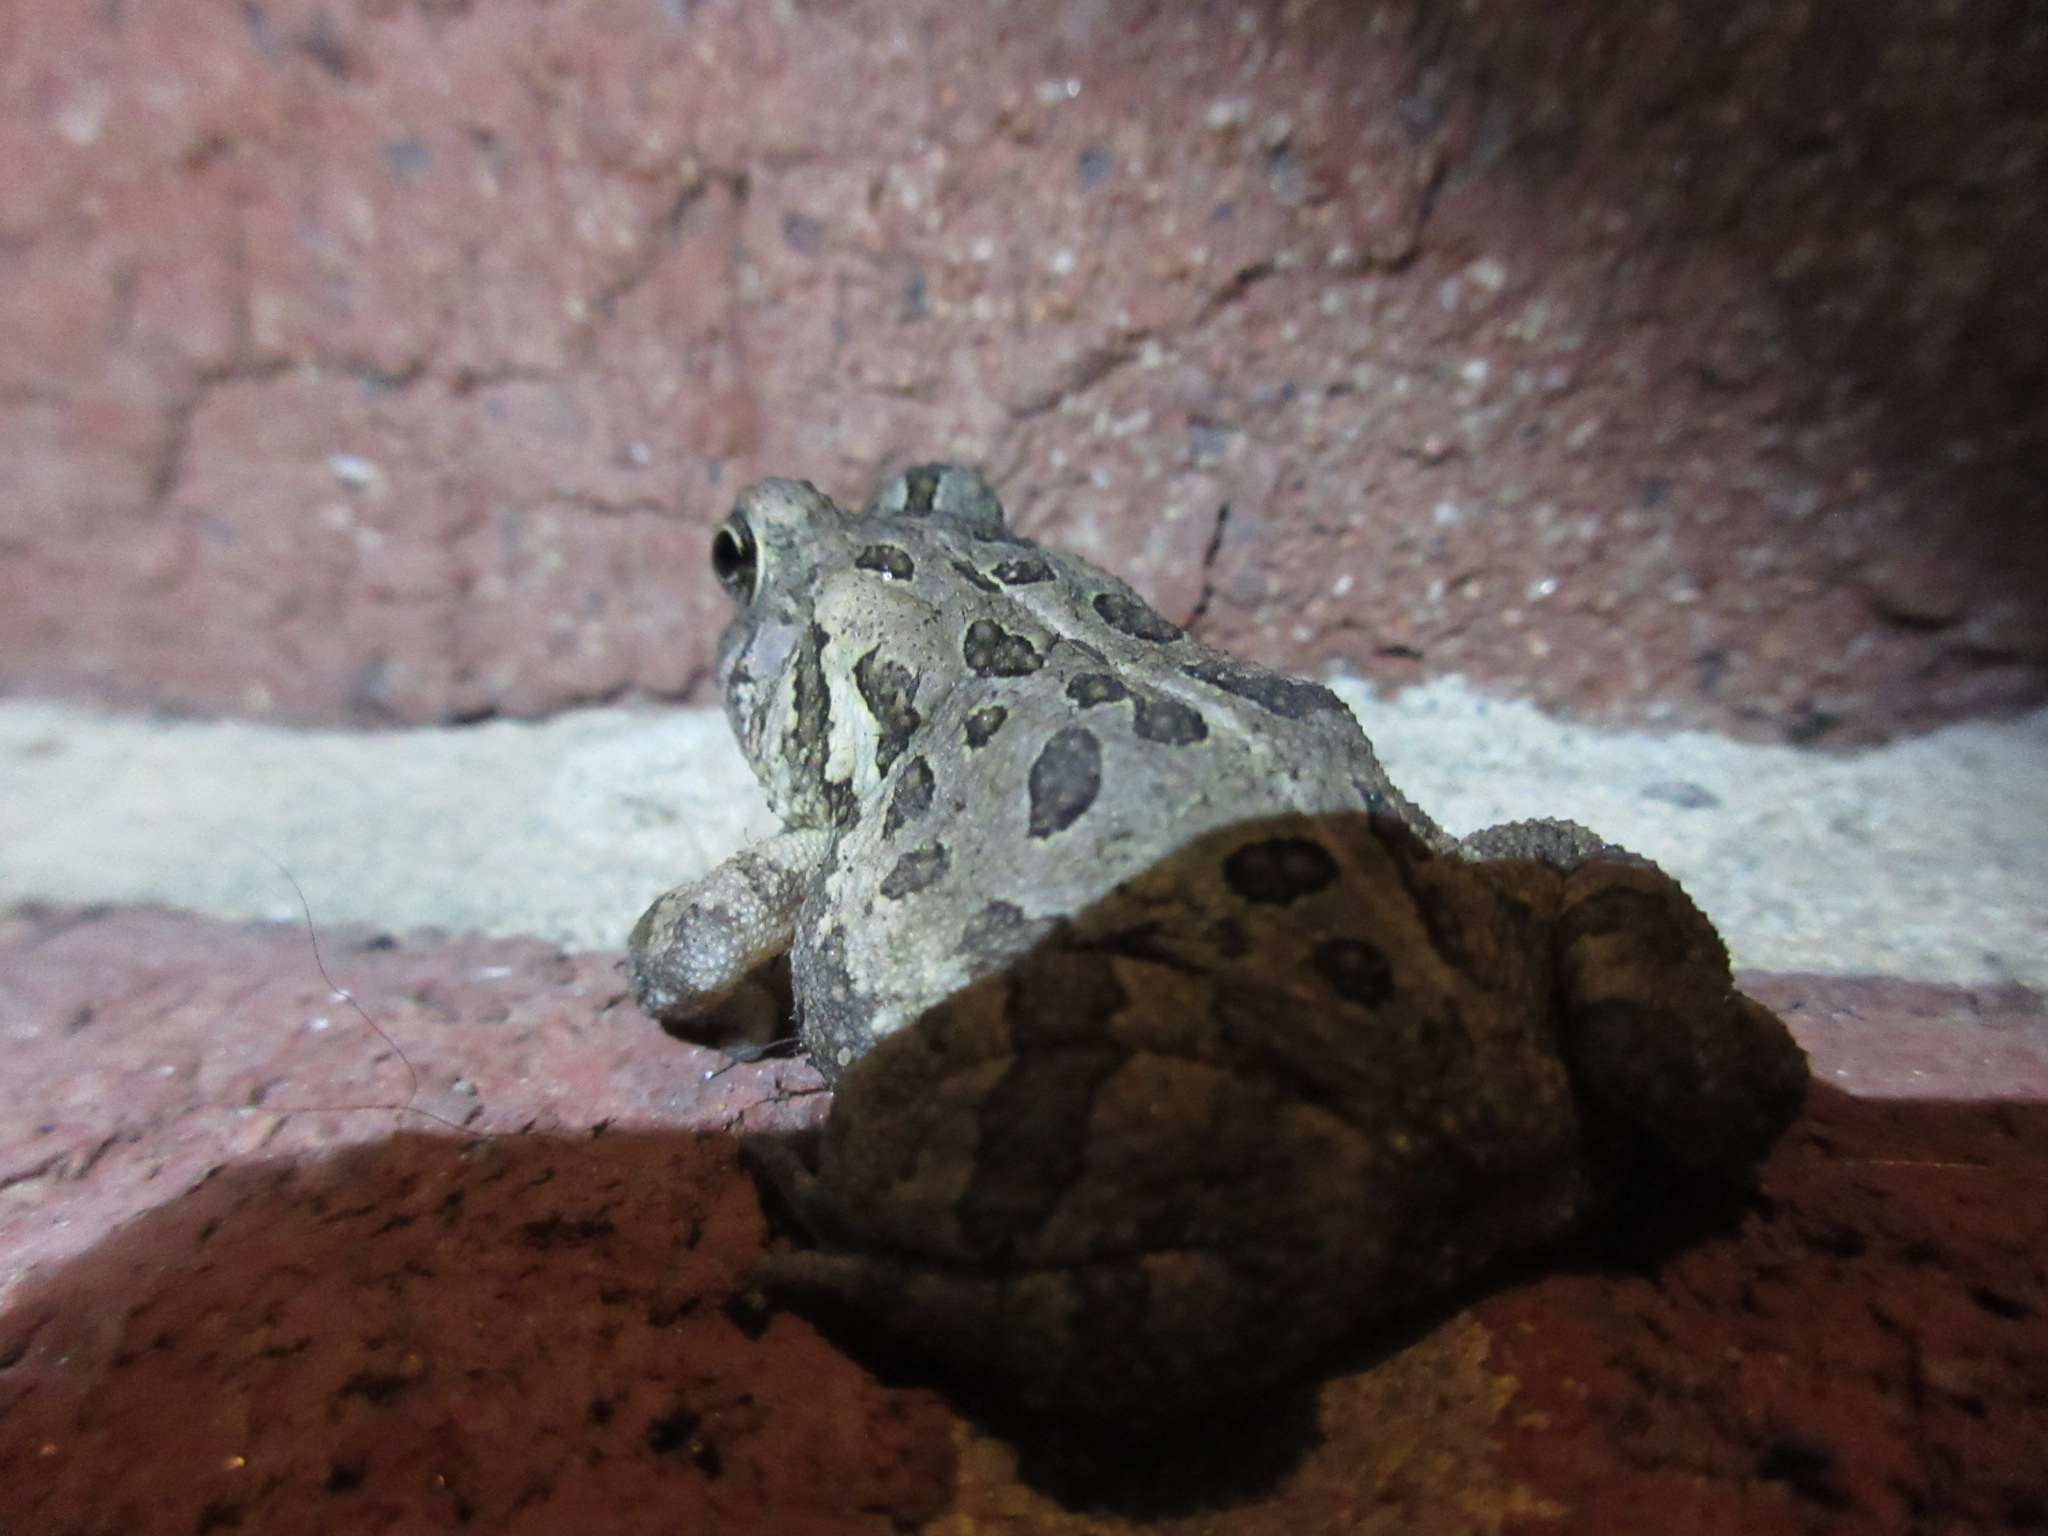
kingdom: Animalia
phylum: Chordata
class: Amphibia
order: Anura
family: Bufonidae
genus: Anaxyrus
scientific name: Anaxyrus fowleri
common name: Fowler's toad
